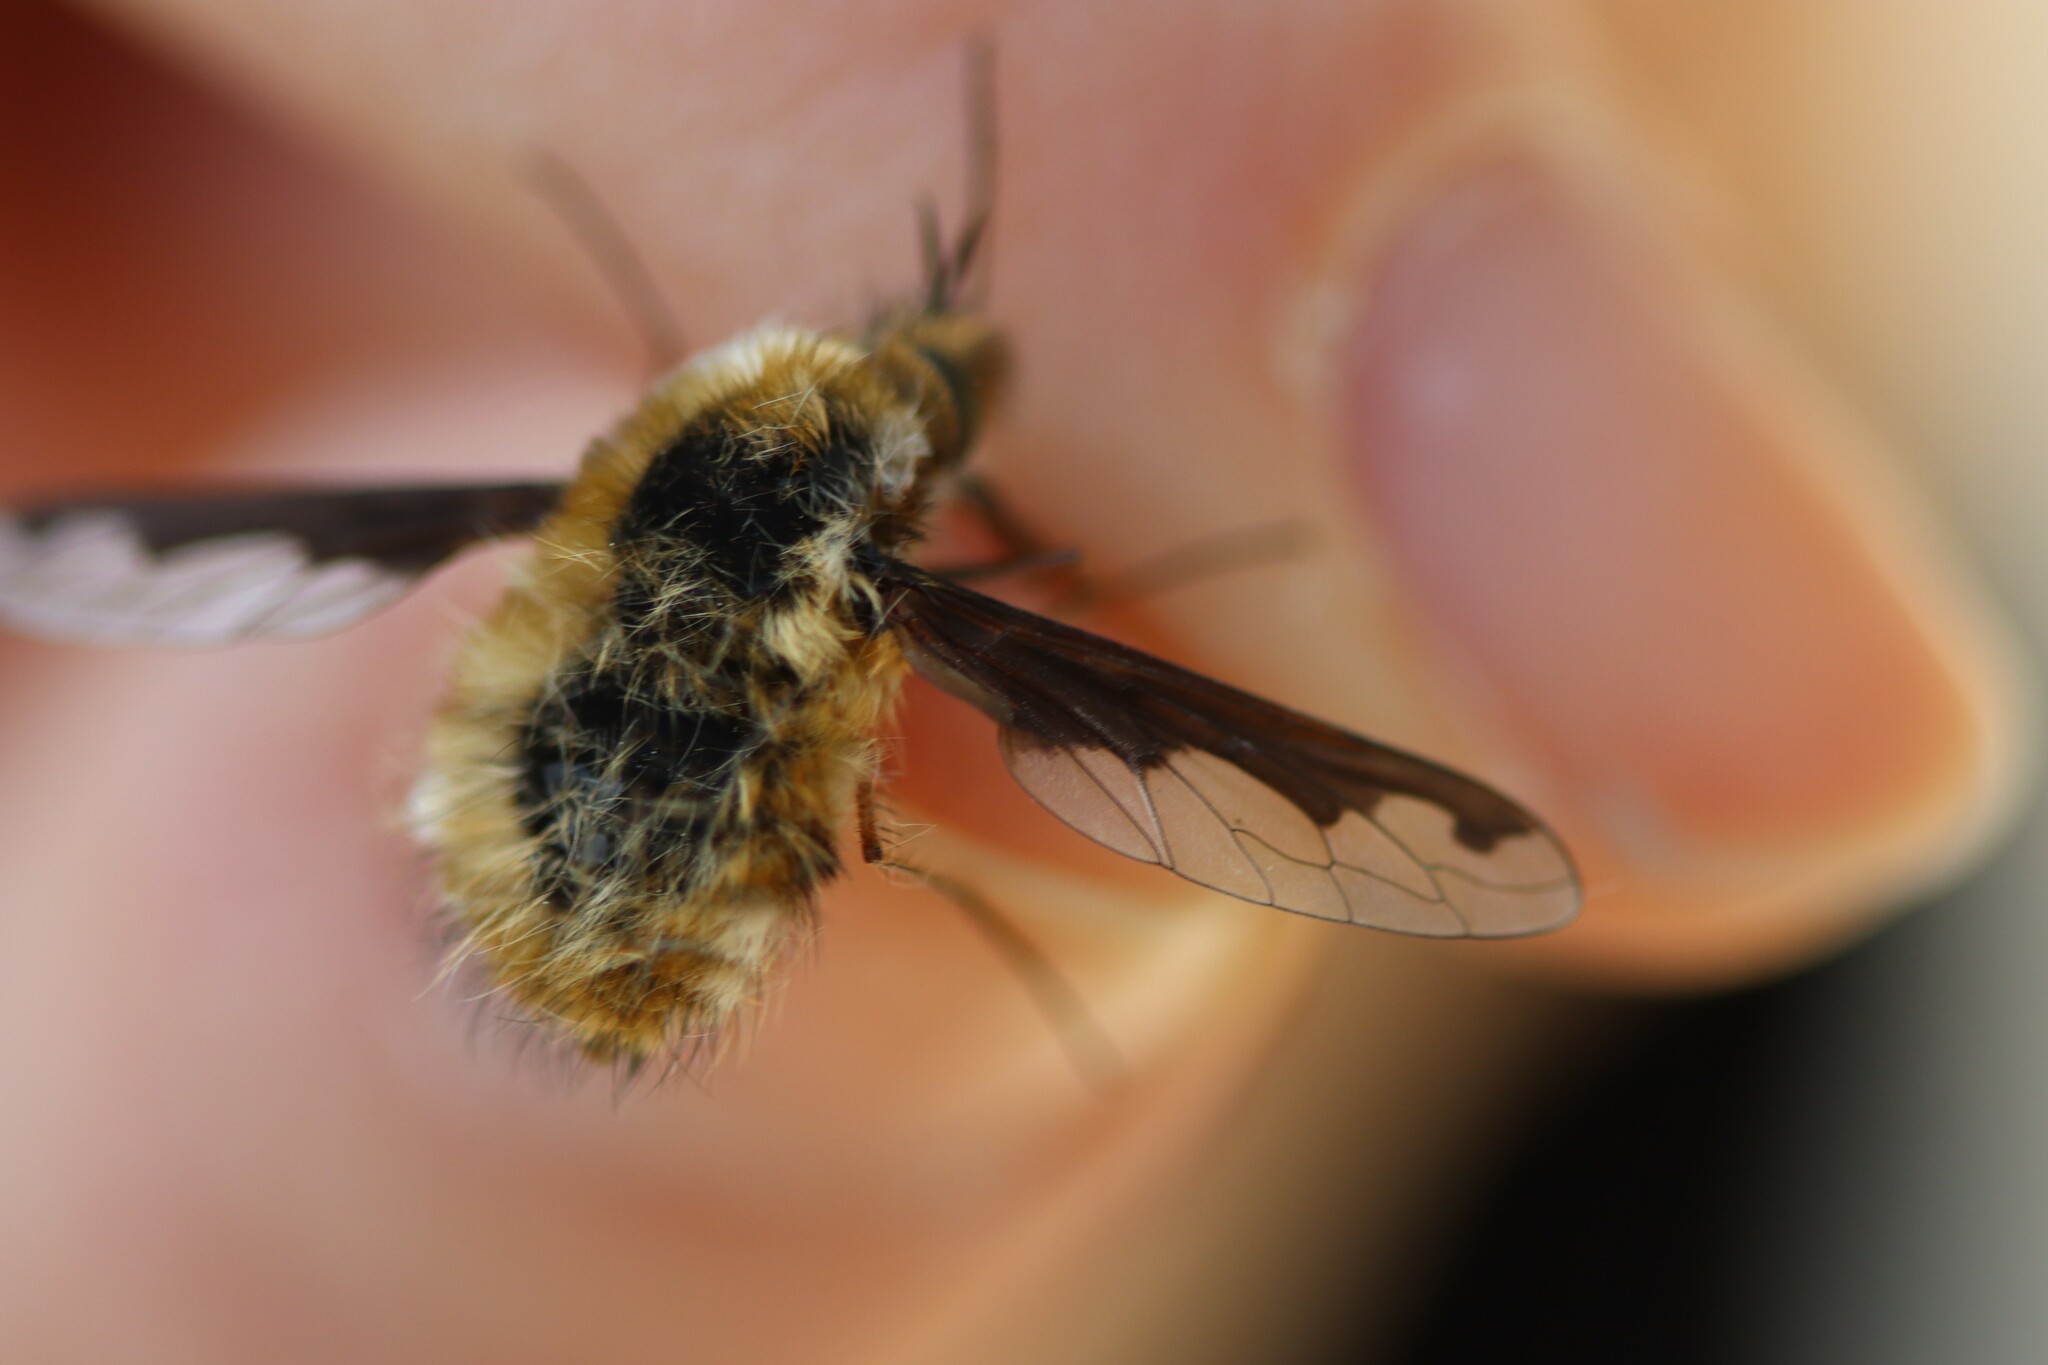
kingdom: Animalia
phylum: Arthropoda
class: Insecta
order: Diptera
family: Bombyliidae
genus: Bombylius
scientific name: Bombylius major
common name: Bee fly
